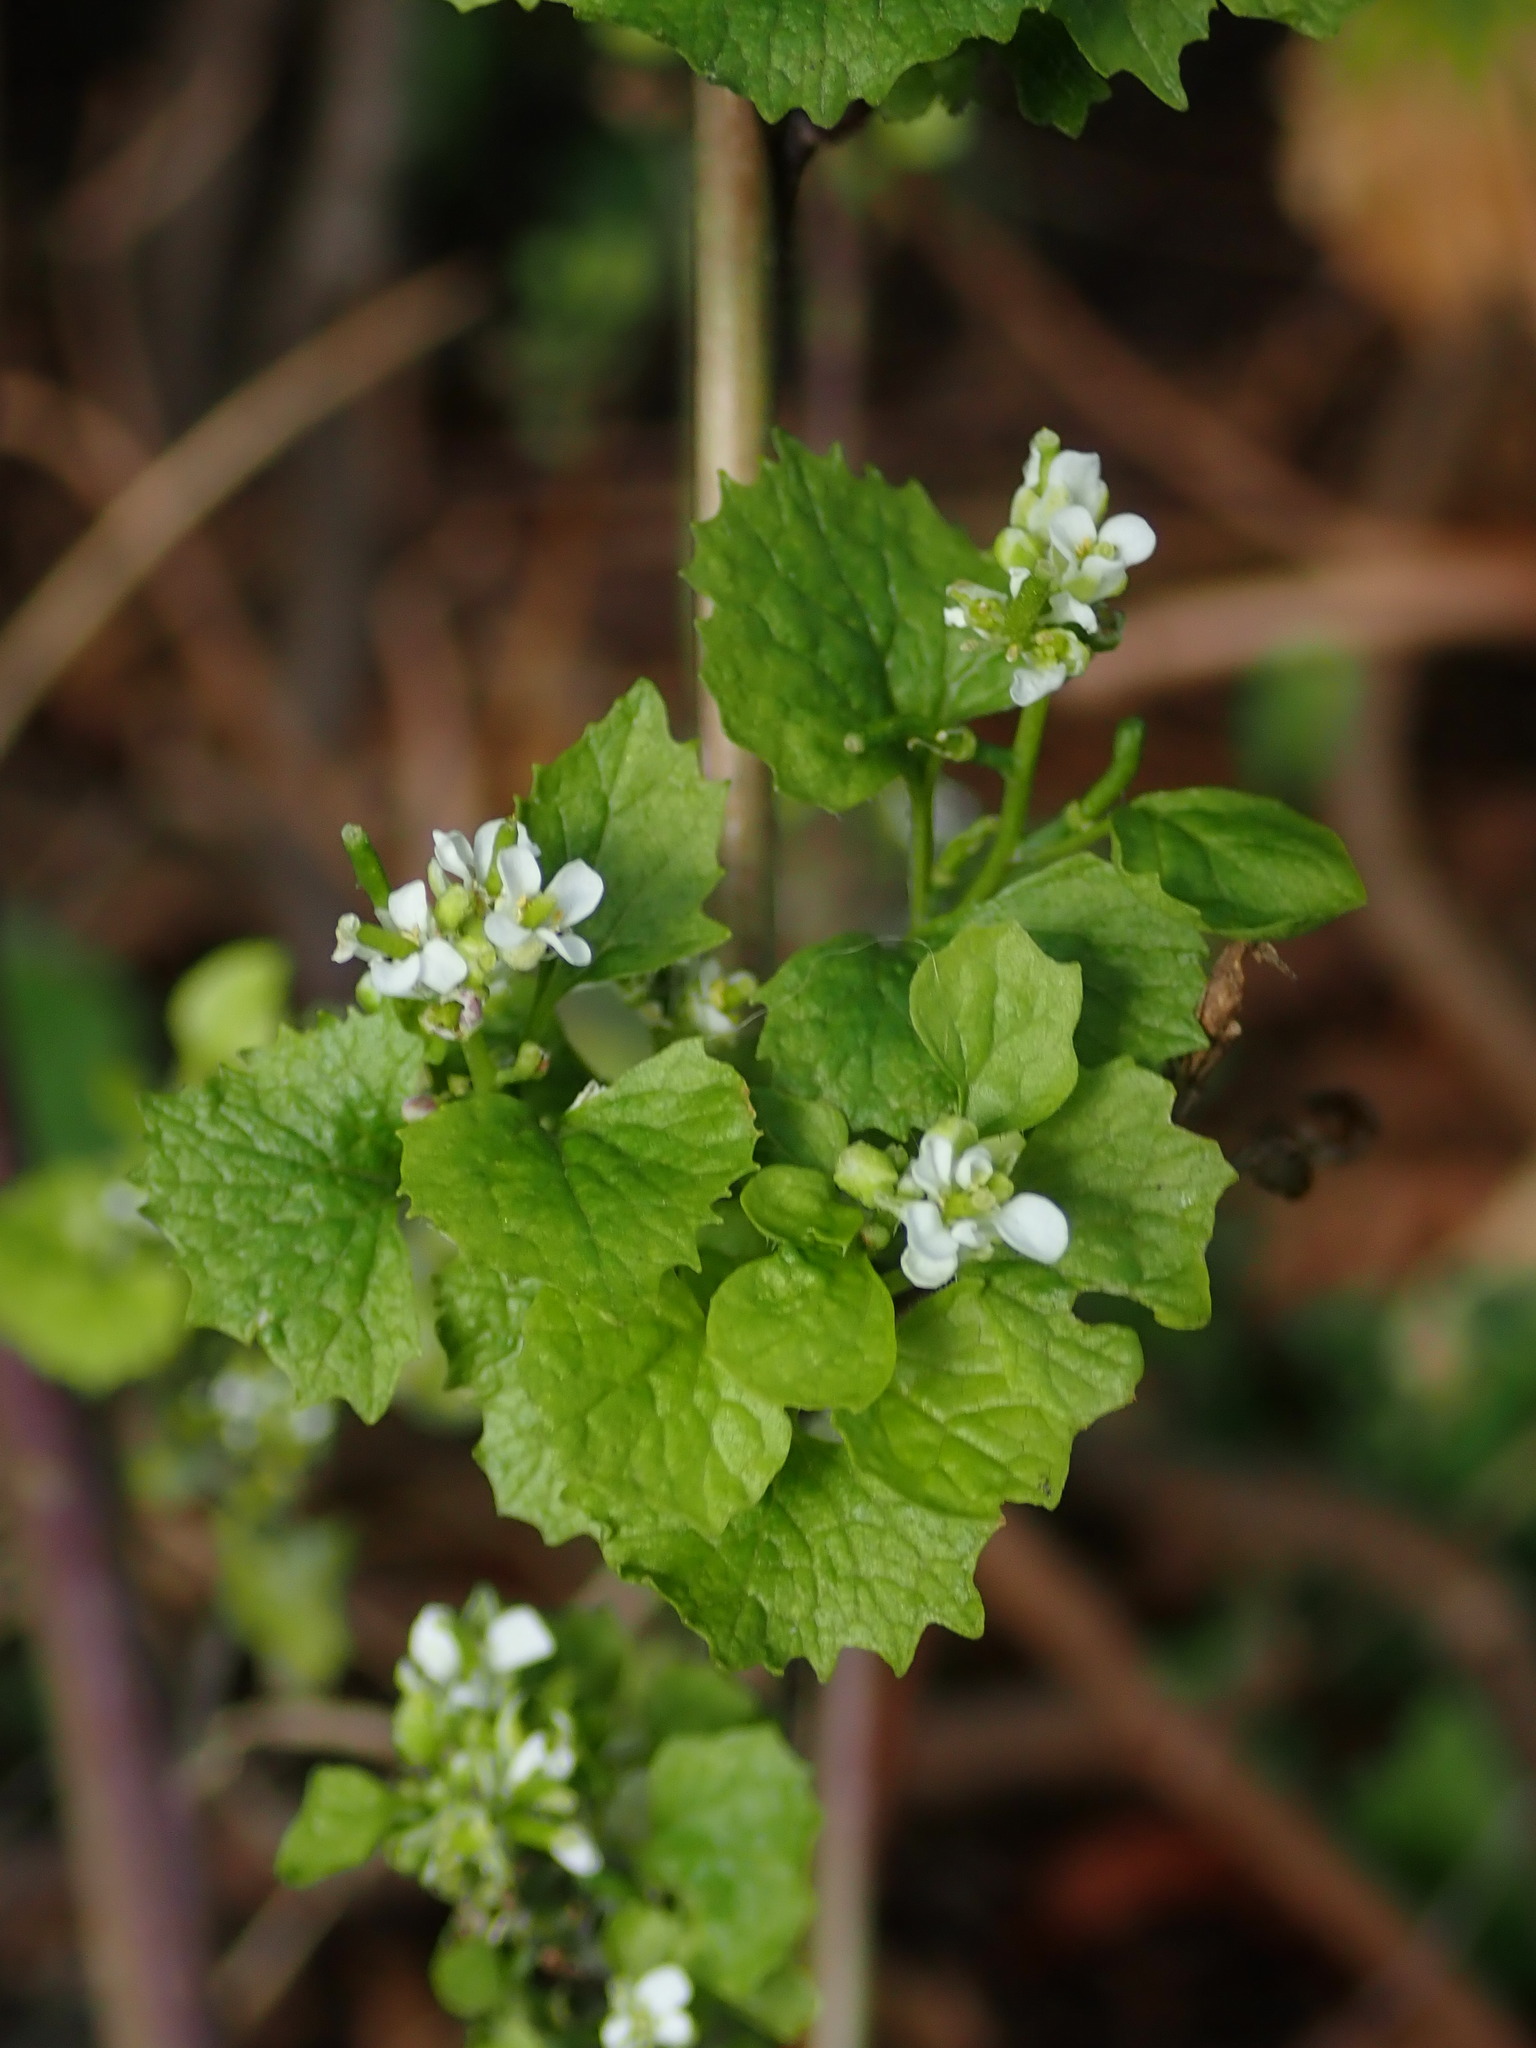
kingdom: Plantae
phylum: Tracheophyta
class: Magnoliopsida
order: Brassicales
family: Brassicaceae
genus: Alliaria
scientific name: Alliaria petiolata
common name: Garlic mustard
